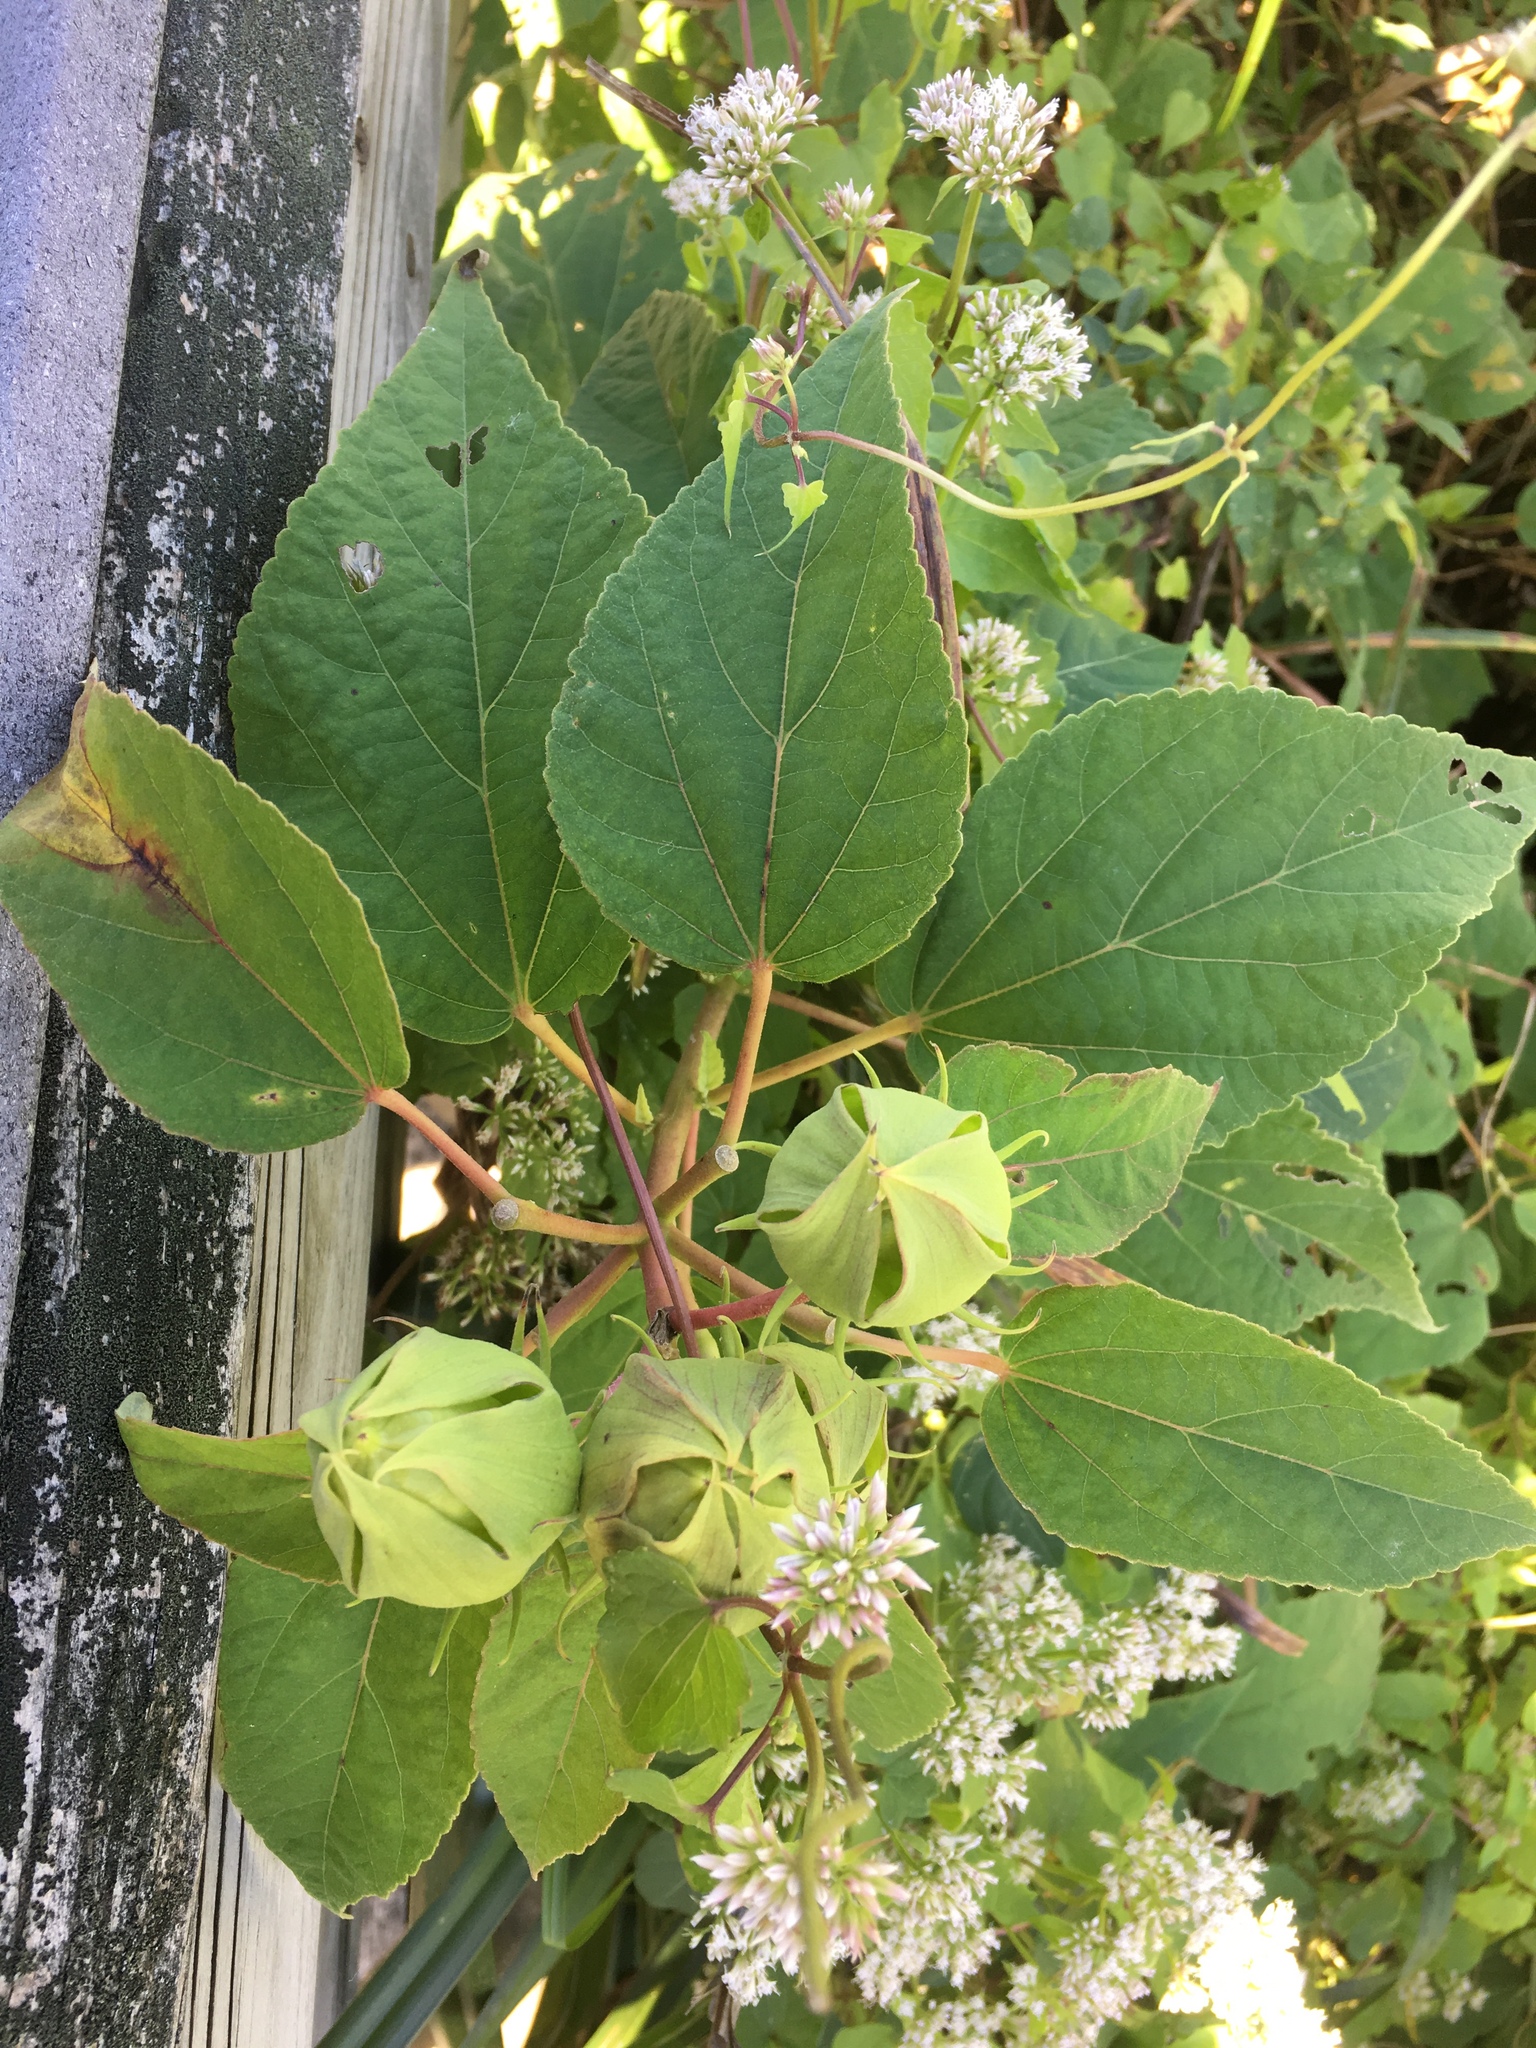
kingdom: Plantae
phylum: Tracheophyta
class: Magnoliopsida
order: Malvales
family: Malvaceae
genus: Hibiscus
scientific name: Hibiscus moscheutos
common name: Common rose-mallow
